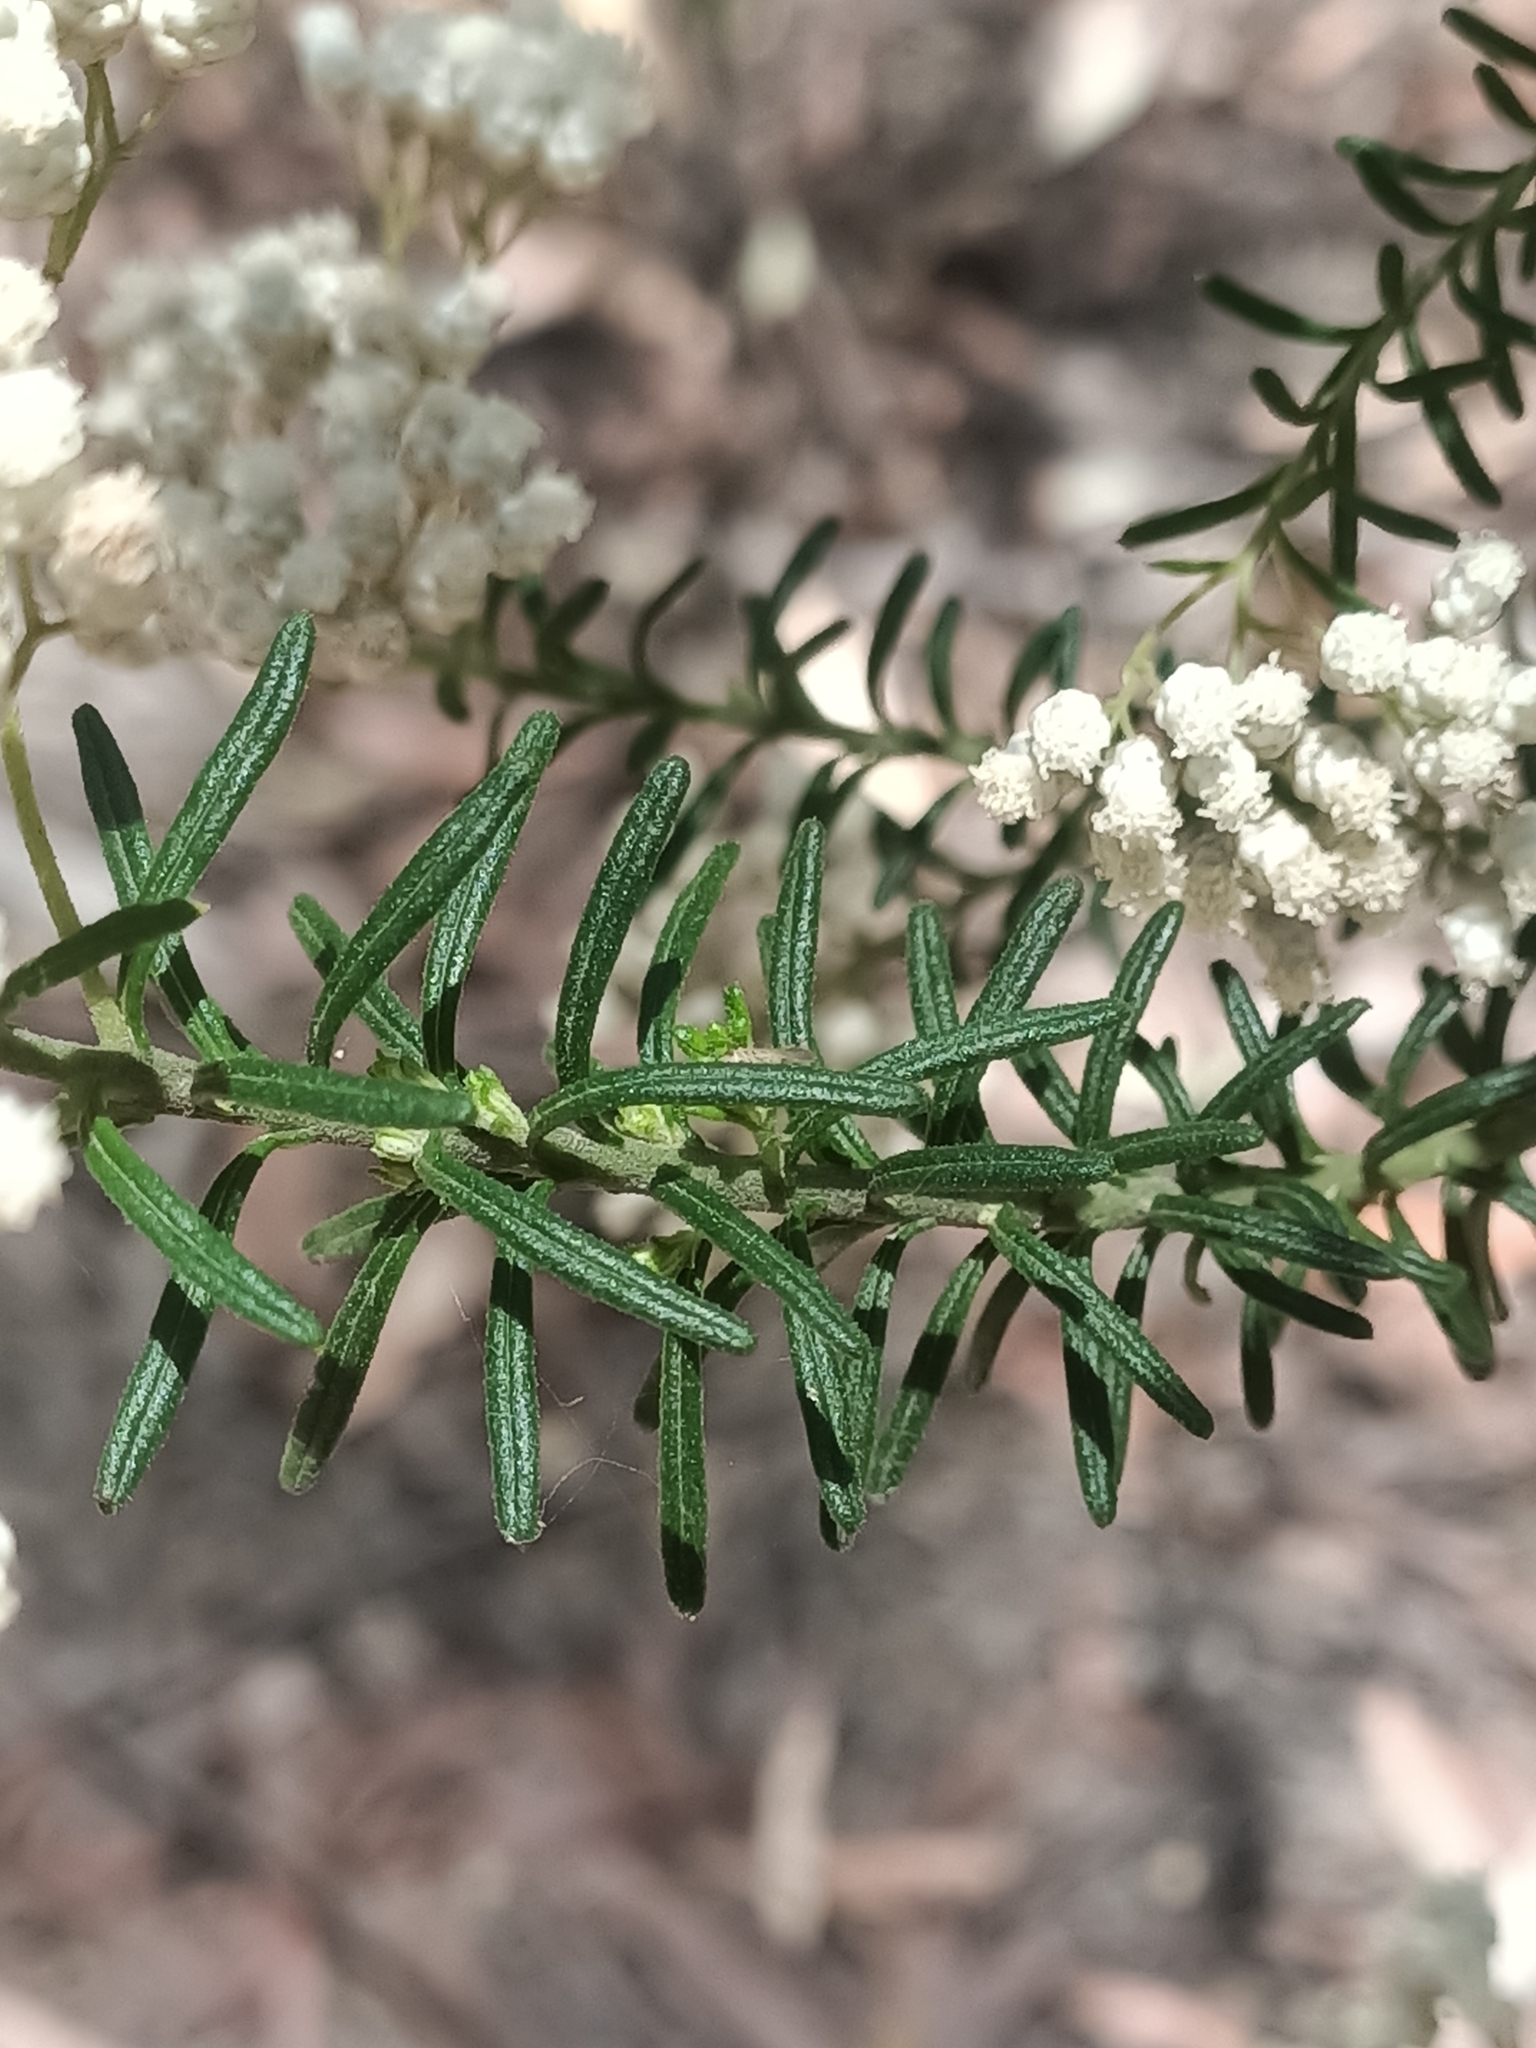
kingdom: Plantae
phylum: Tracheophyta
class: Magnoliopsida
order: Asterales
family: Asteraceae
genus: Ozothamnus
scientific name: Ozothamnus diosmifolius
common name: White-dogwood
